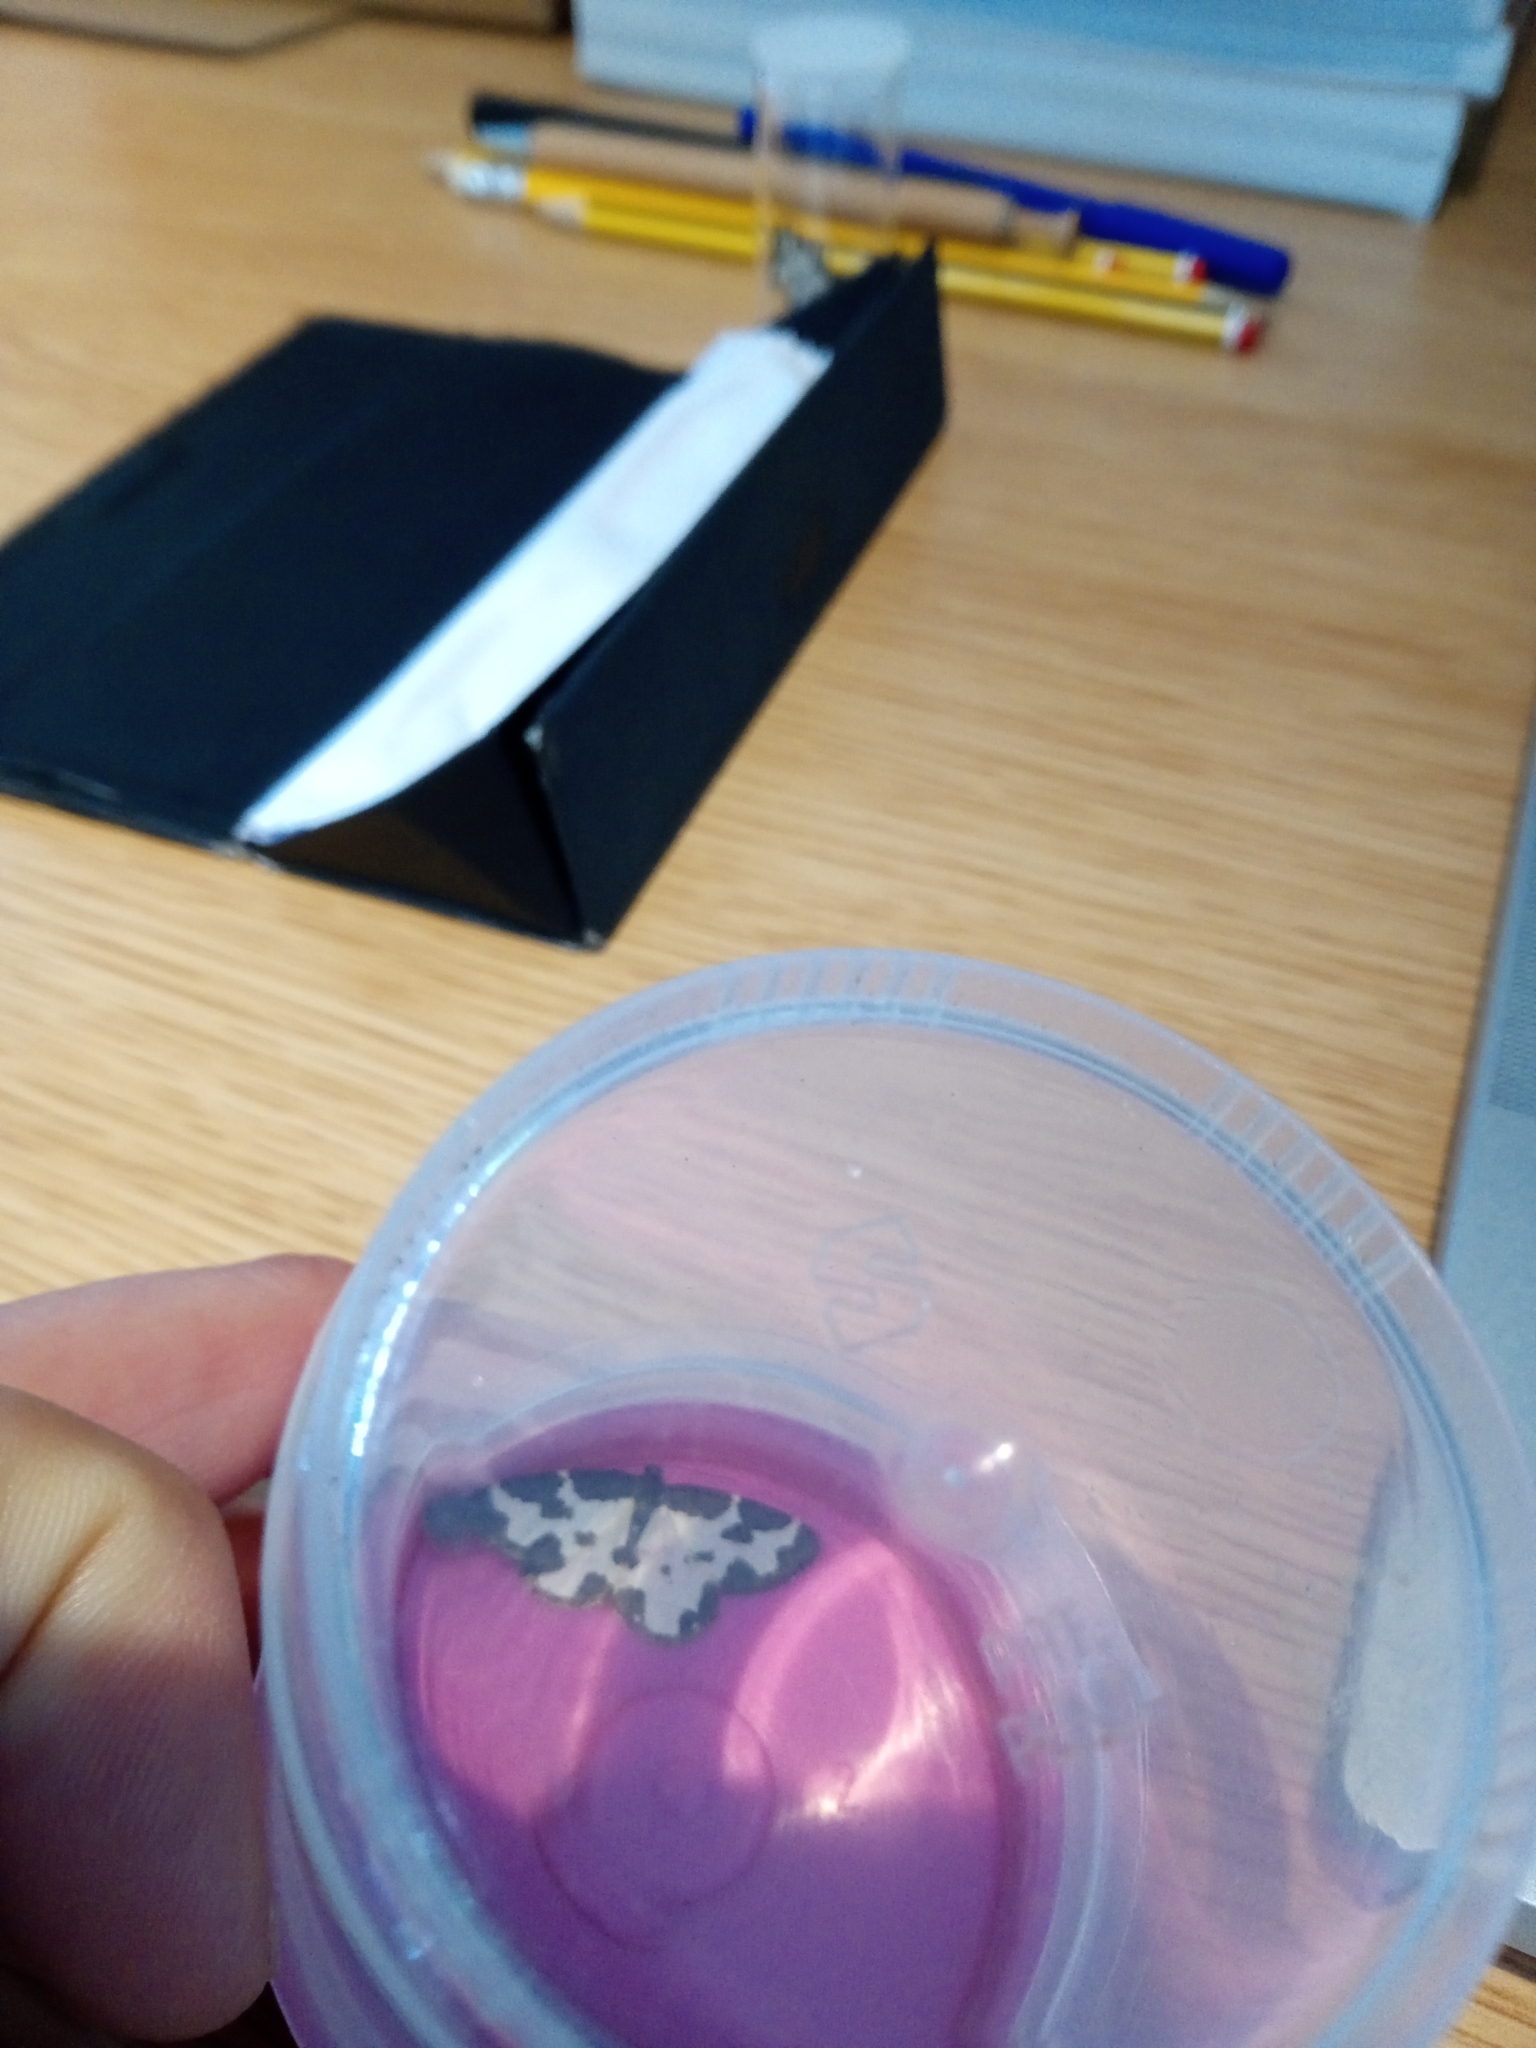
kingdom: Animalia
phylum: Arthropoda
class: Insecta
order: Lepidoptera
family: Geometridae
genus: Lomaspilis
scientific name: Lomaspilis marginata
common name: Clouded border
